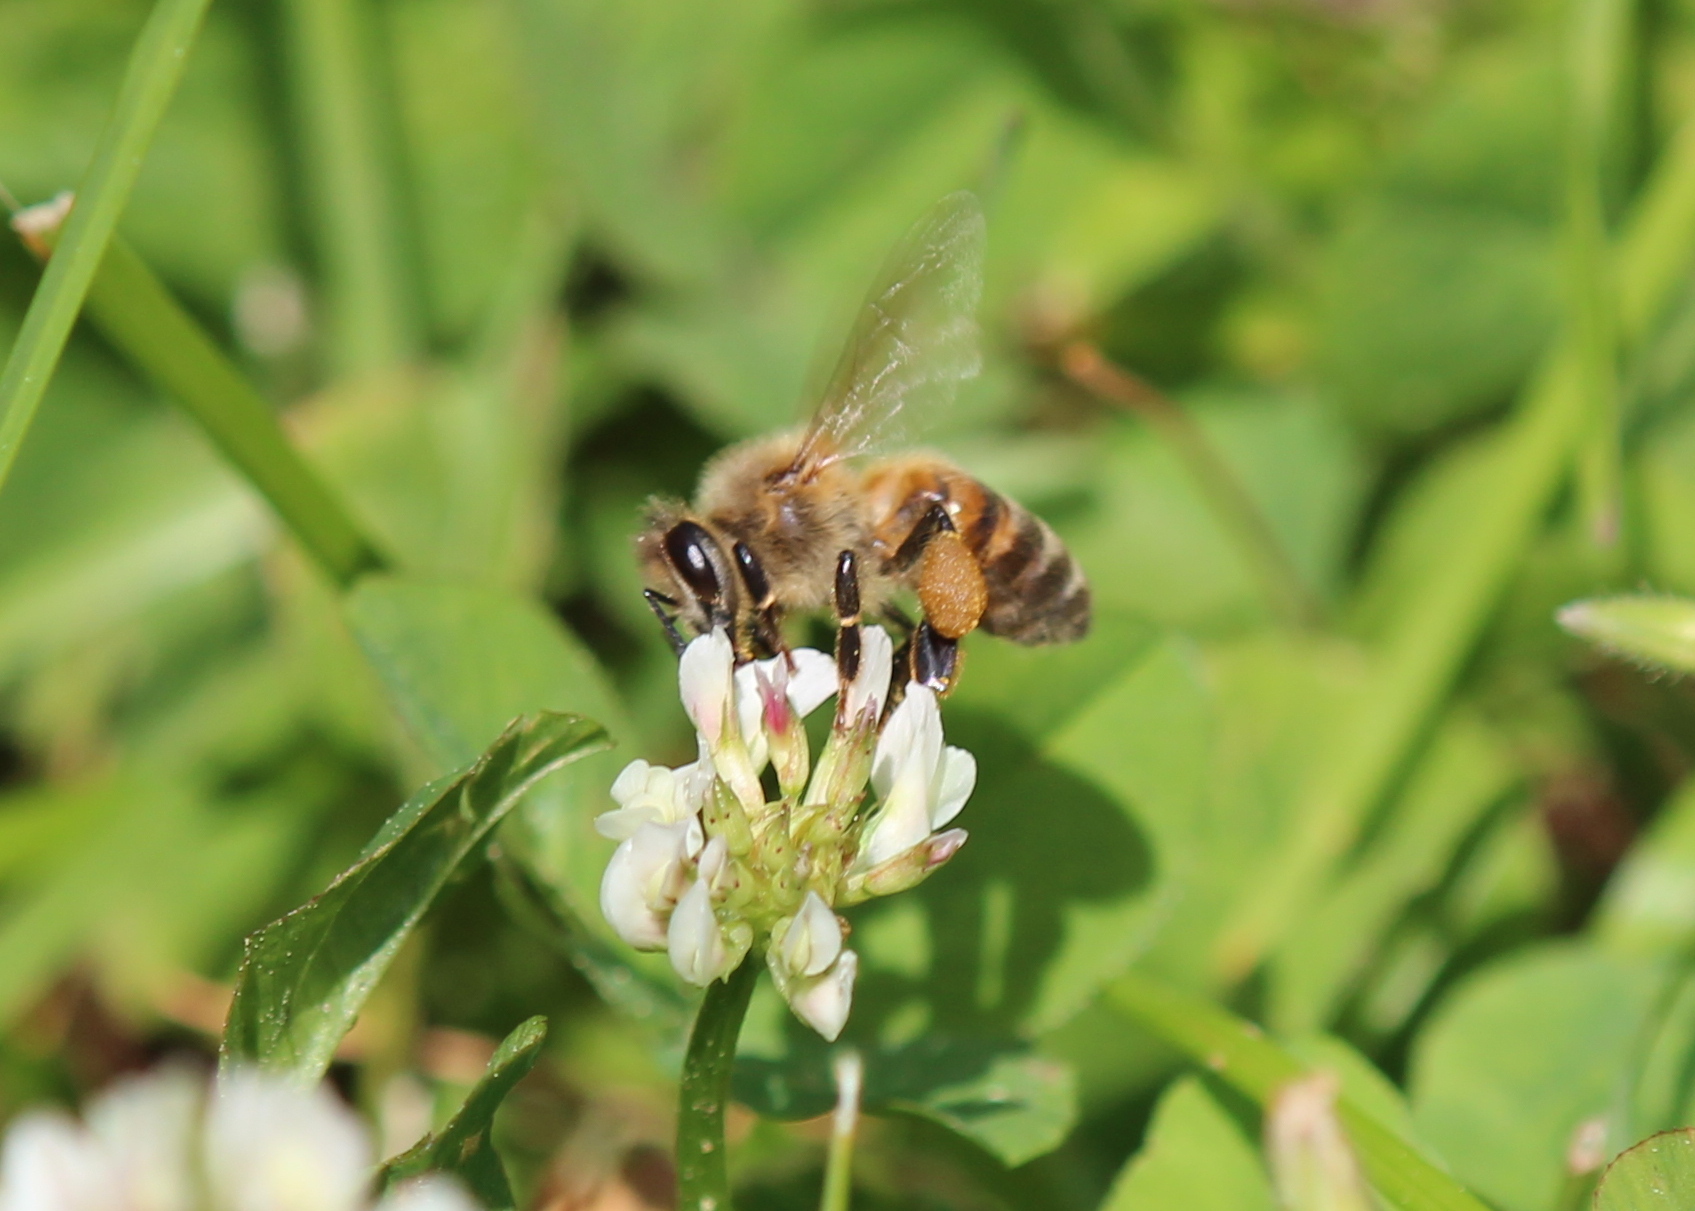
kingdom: Animalia
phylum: Arthropoda
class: Insecta
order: Hymenoptera
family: Apidae
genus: Apis
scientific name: Apis mellifera
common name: Honey bee
